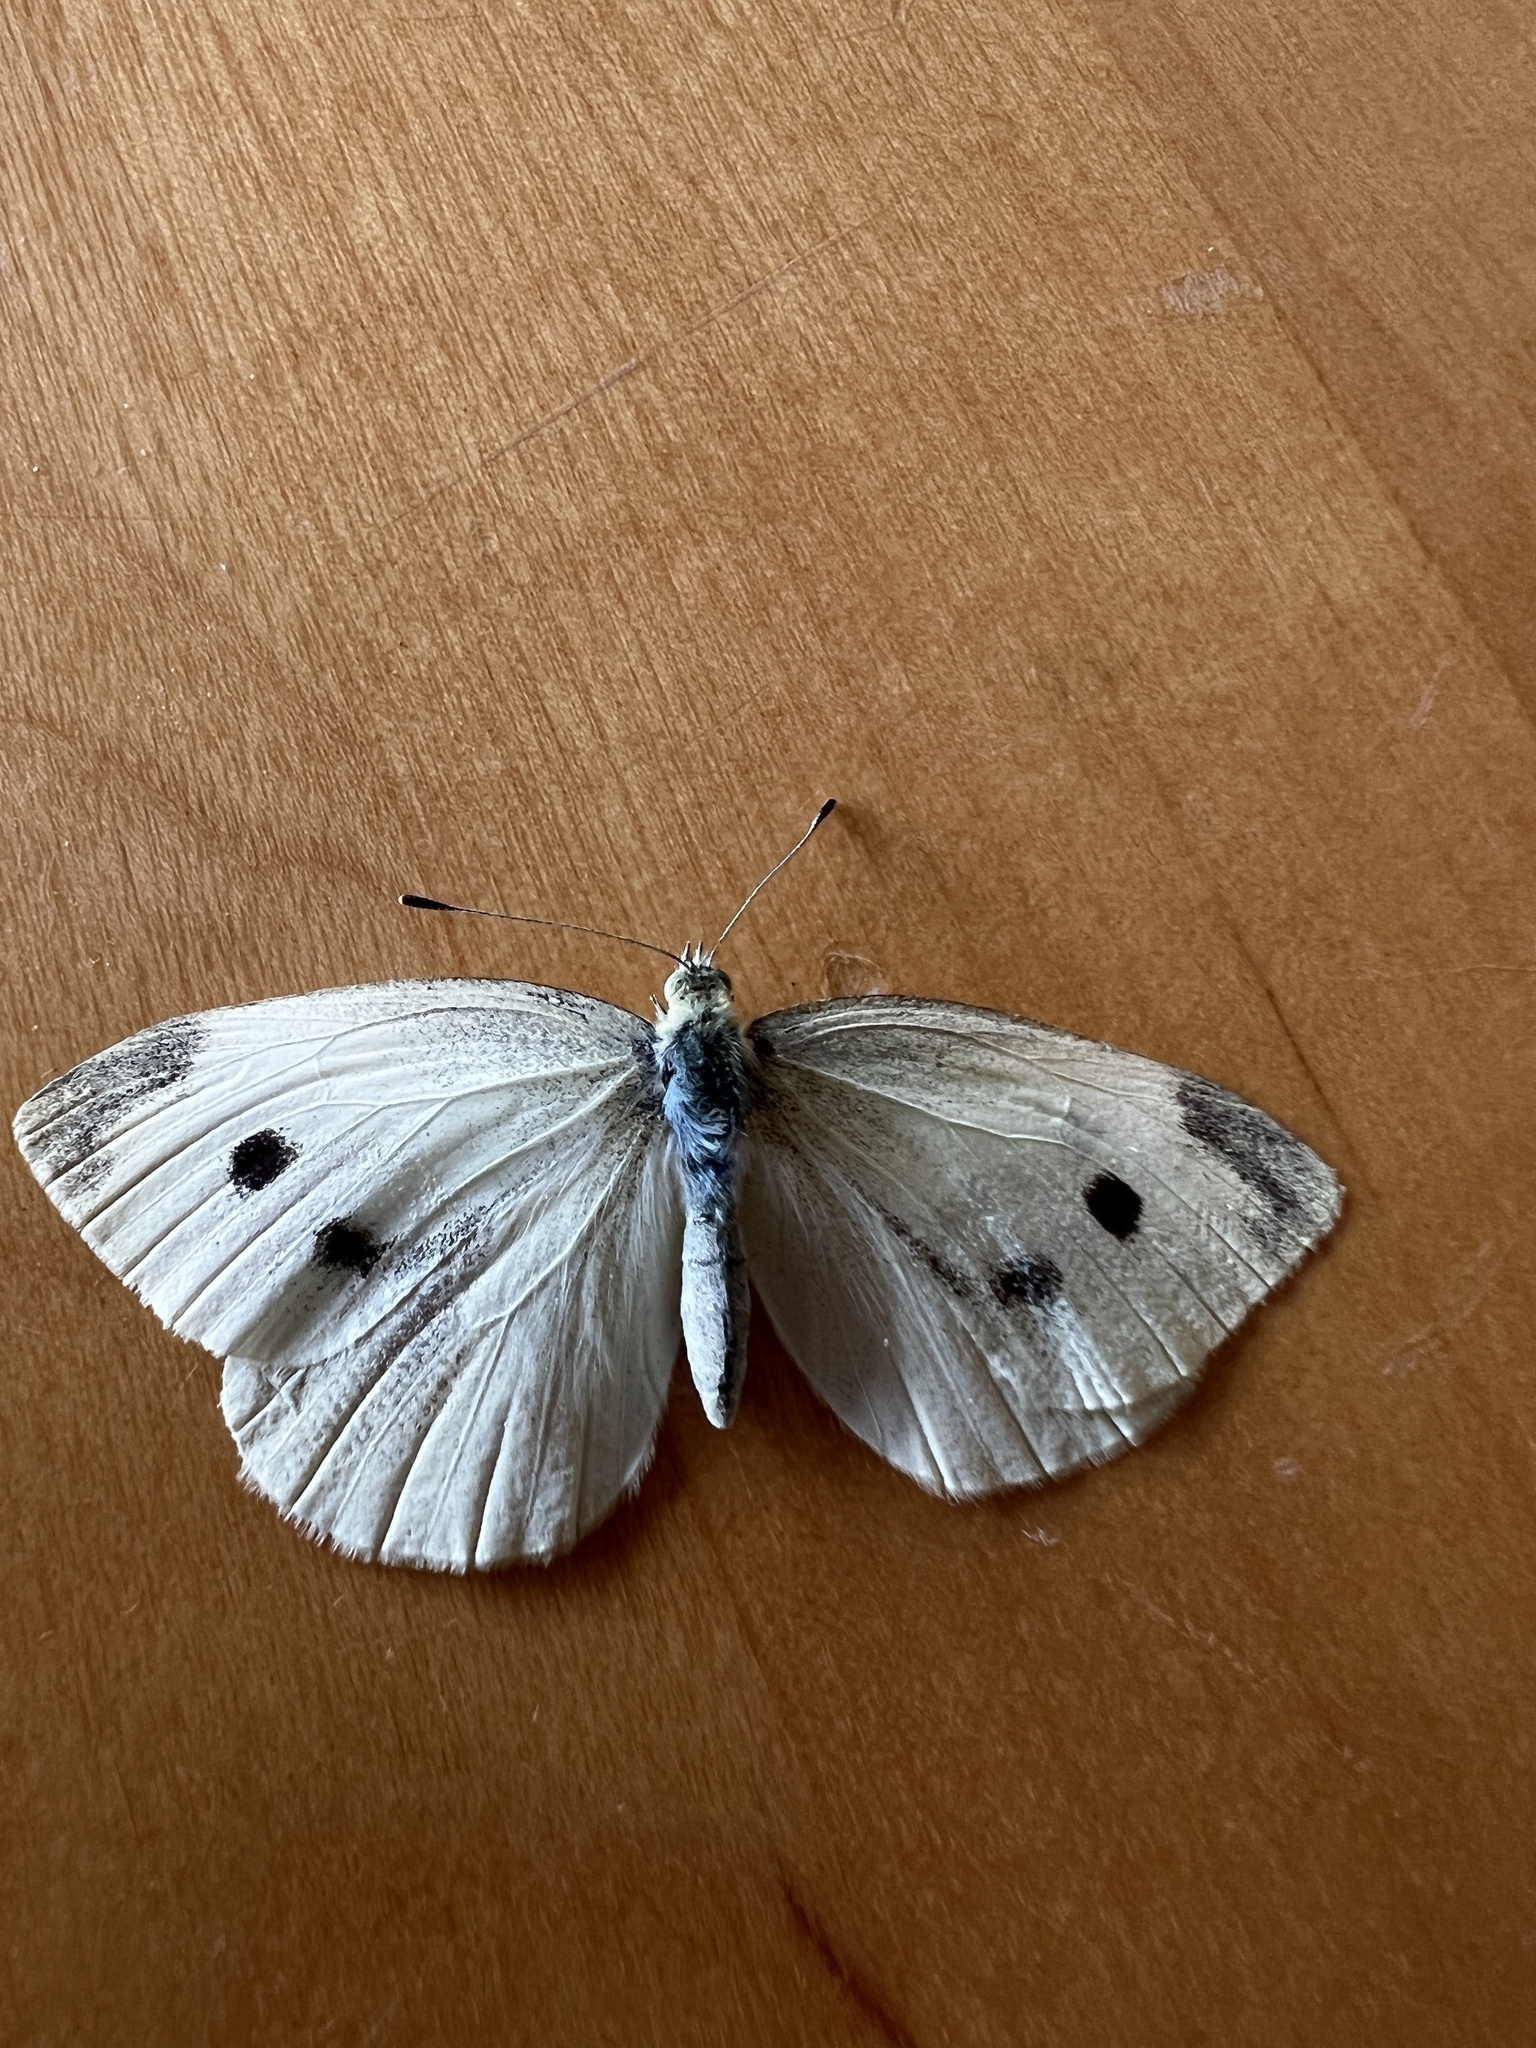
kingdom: Animalia
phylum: Arthropoda
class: Insecta
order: Lepidoptera
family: Pieridae
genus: Pieris
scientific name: Pieris rapae
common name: Small white
